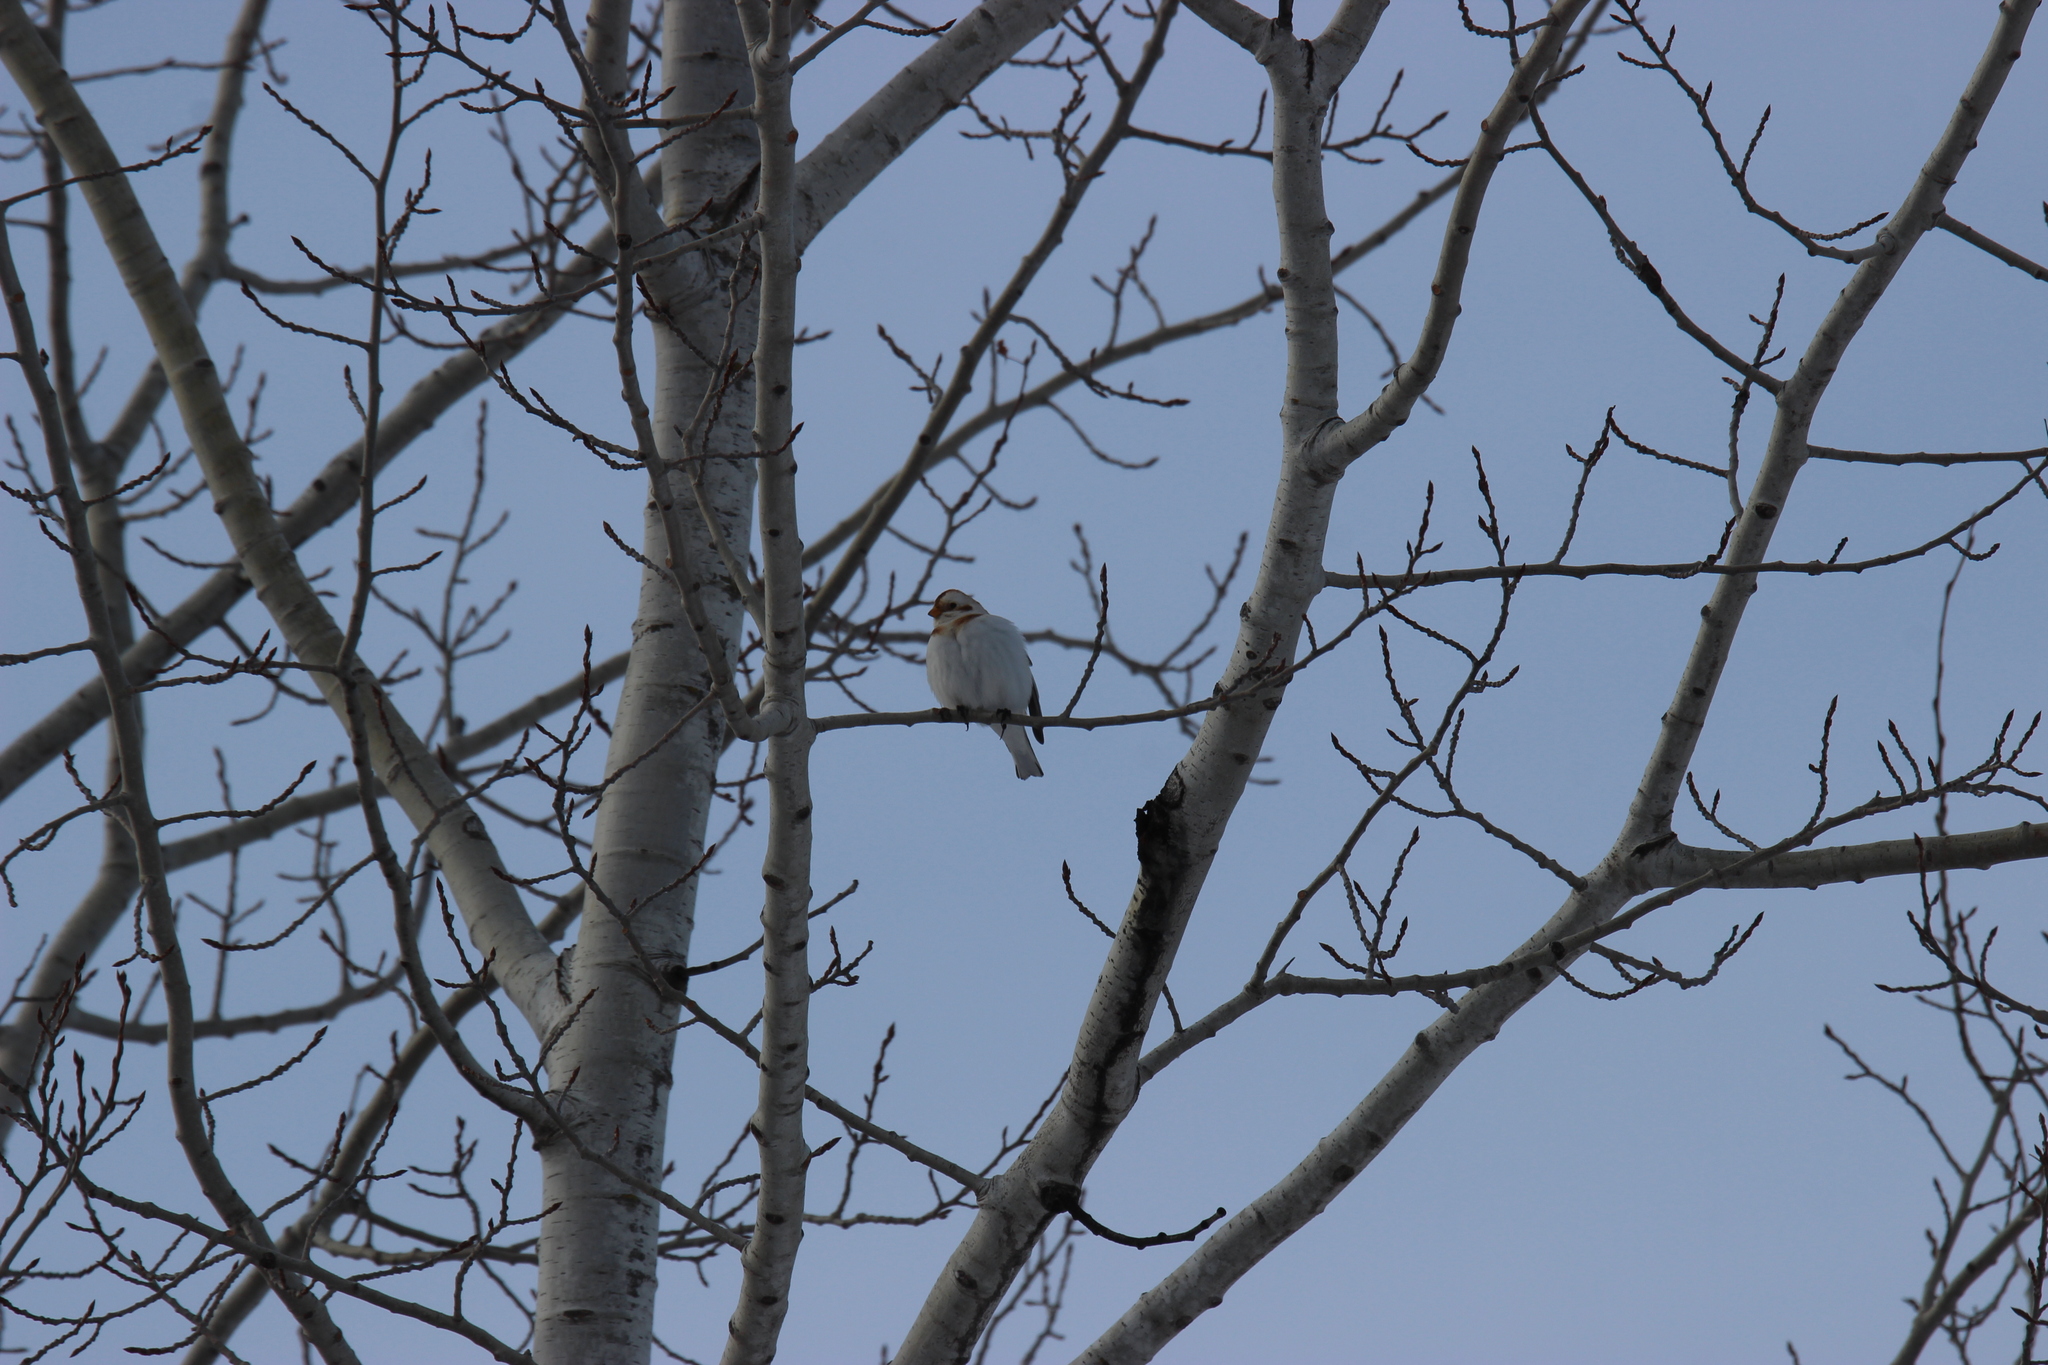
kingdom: Animalia
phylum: Chordata
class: Aves
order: Passeriformes
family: Calcariidae
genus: Plectrophenax
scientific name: Plectrophenax nivalis
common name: Snow bunting
